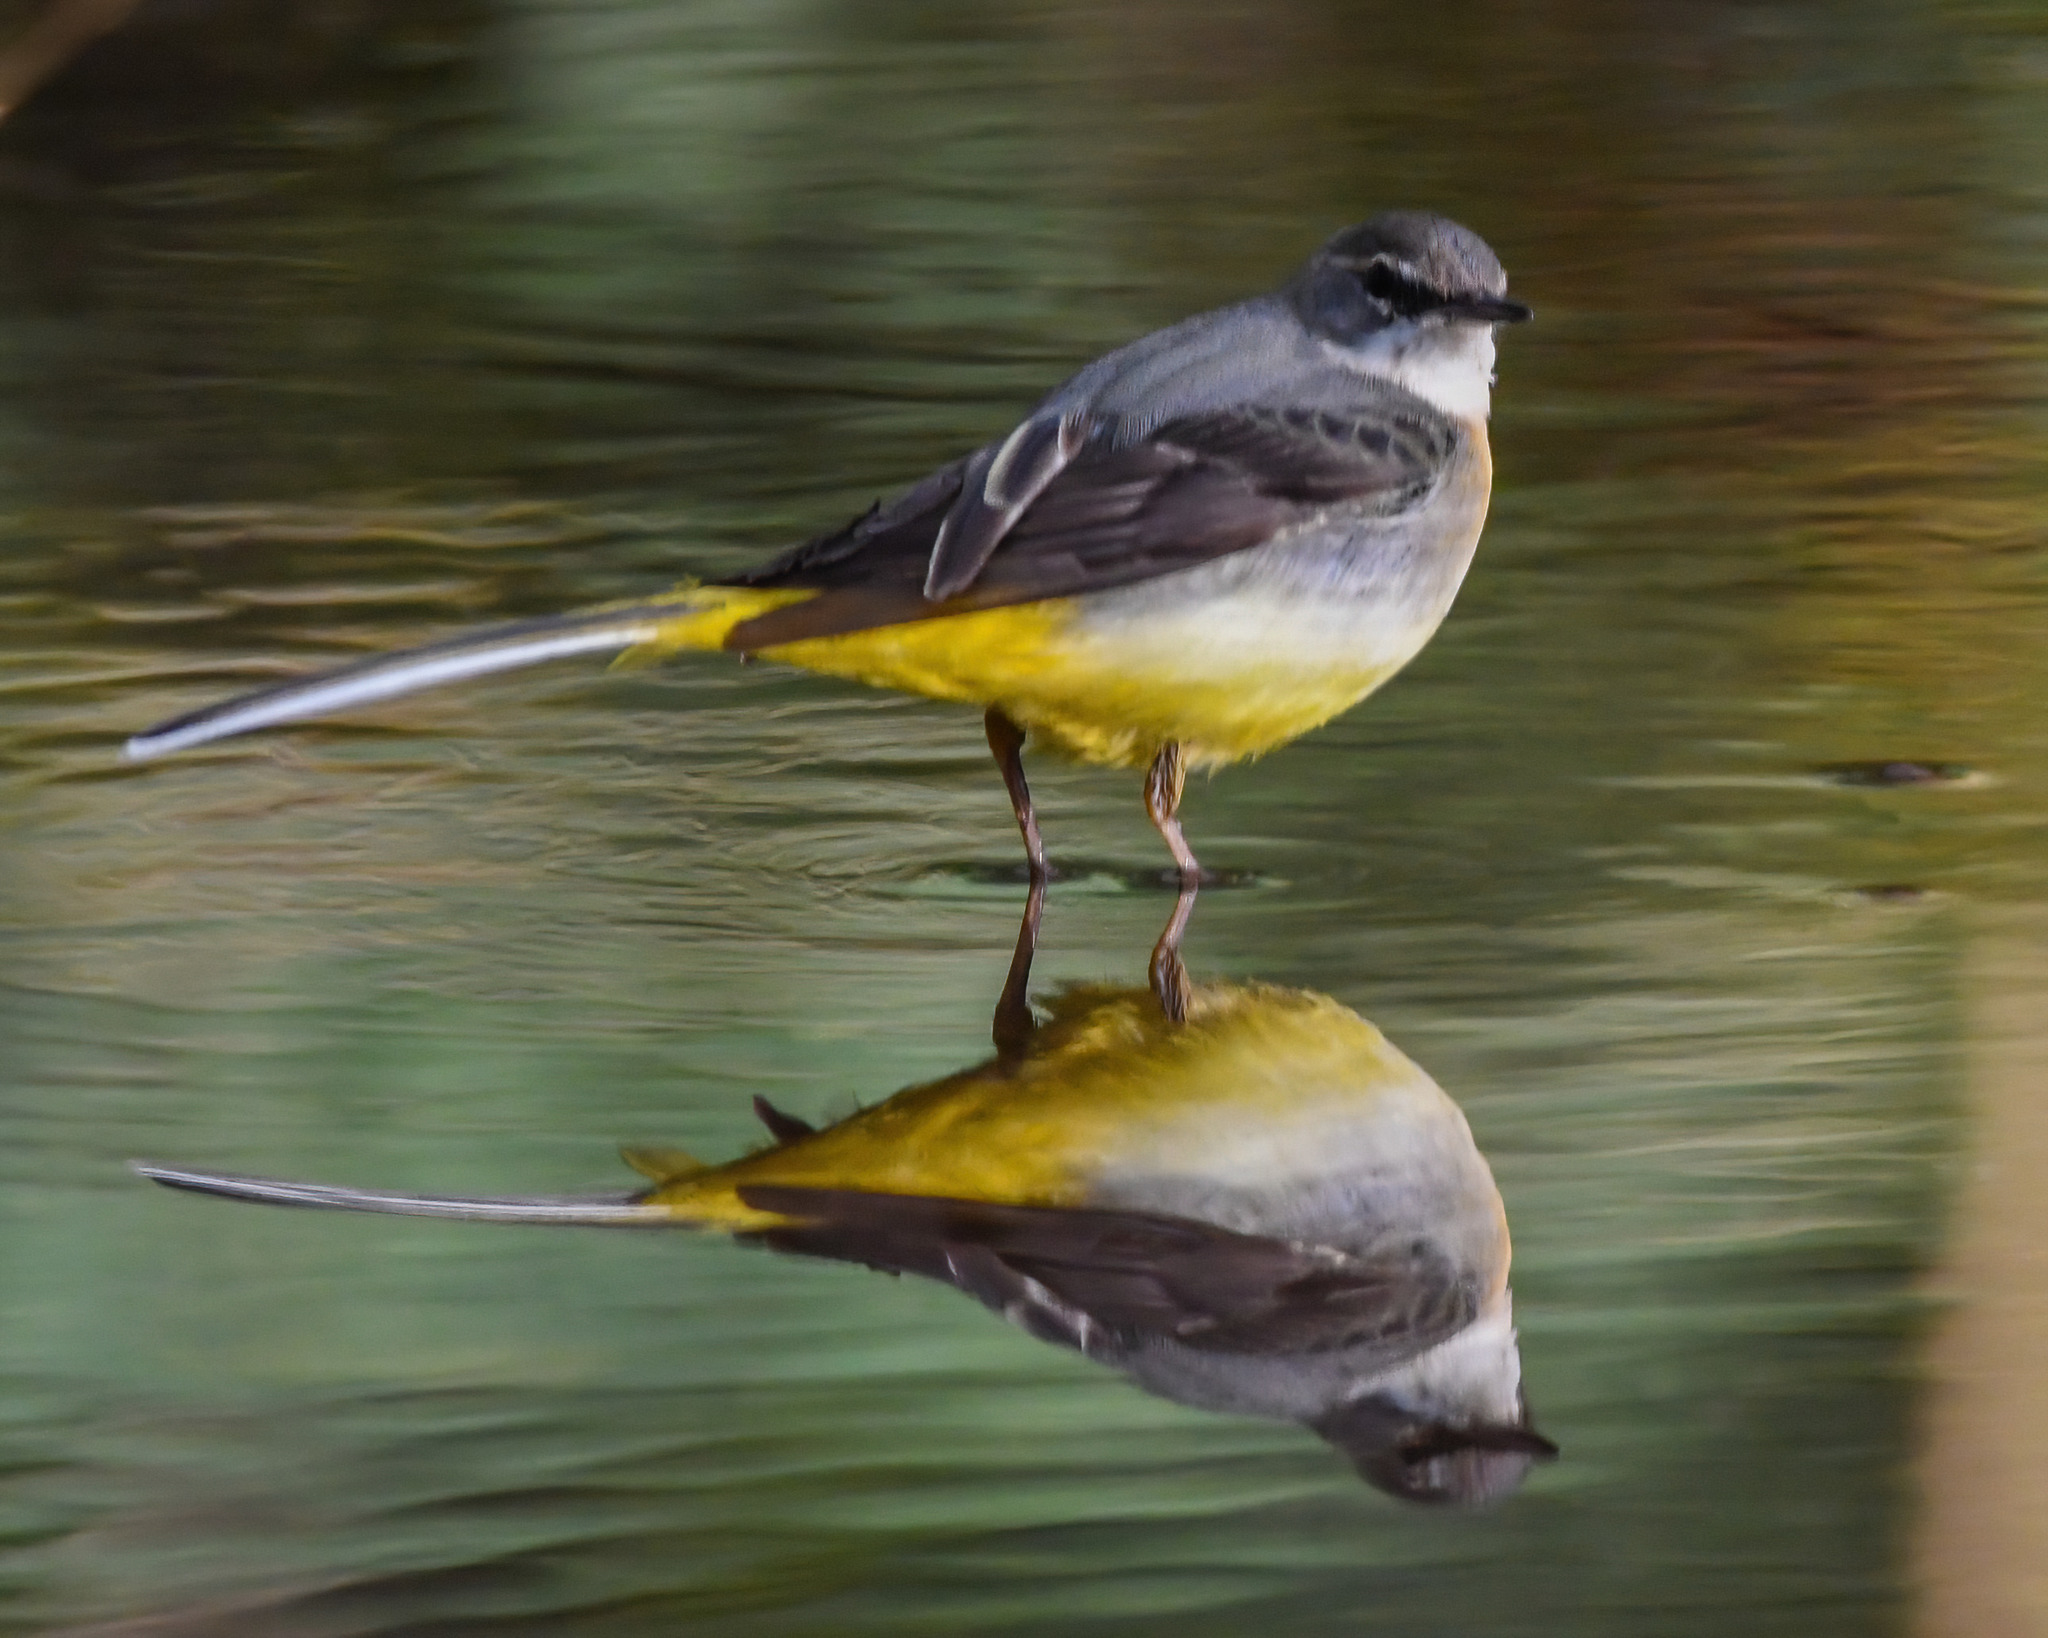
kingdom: Animalia
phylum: Chordata
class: Aves
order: Passeriformes
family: Motacillidae
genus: Motacilla
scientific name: Motacilla cinerea
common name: Grey wagtail
